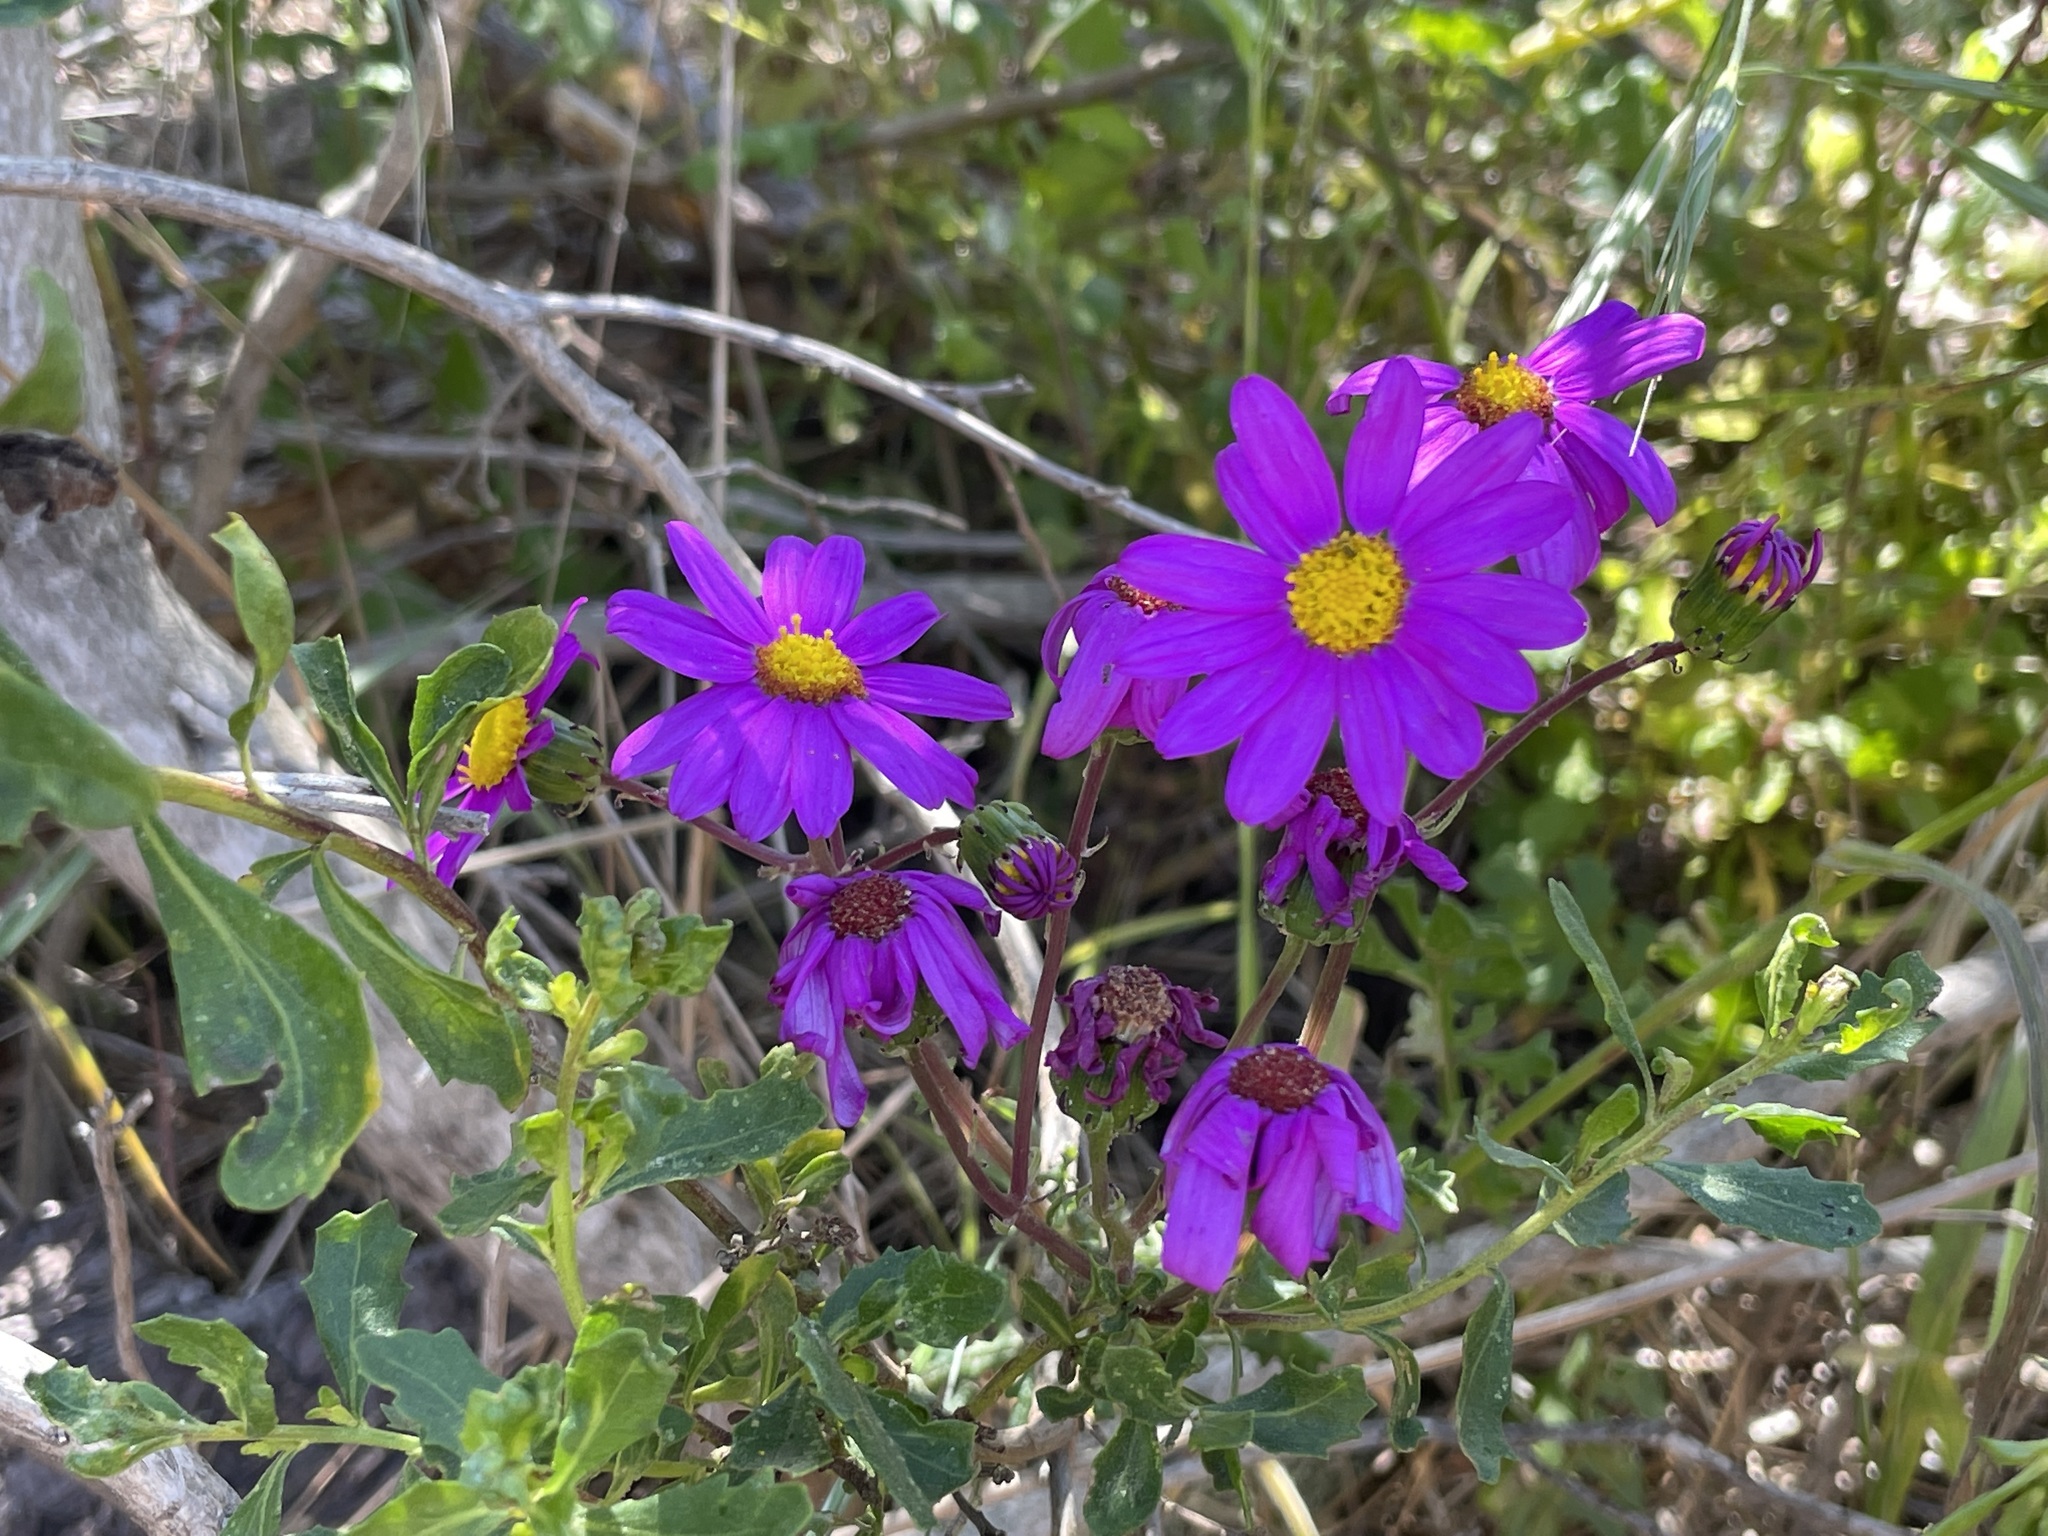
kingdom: Plantae
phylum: Tracheophyta
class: Magnoliopsida
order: Asterales
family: Asteraceae
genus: Senecio
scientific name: Senecio elegans
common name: Purple groundsel
